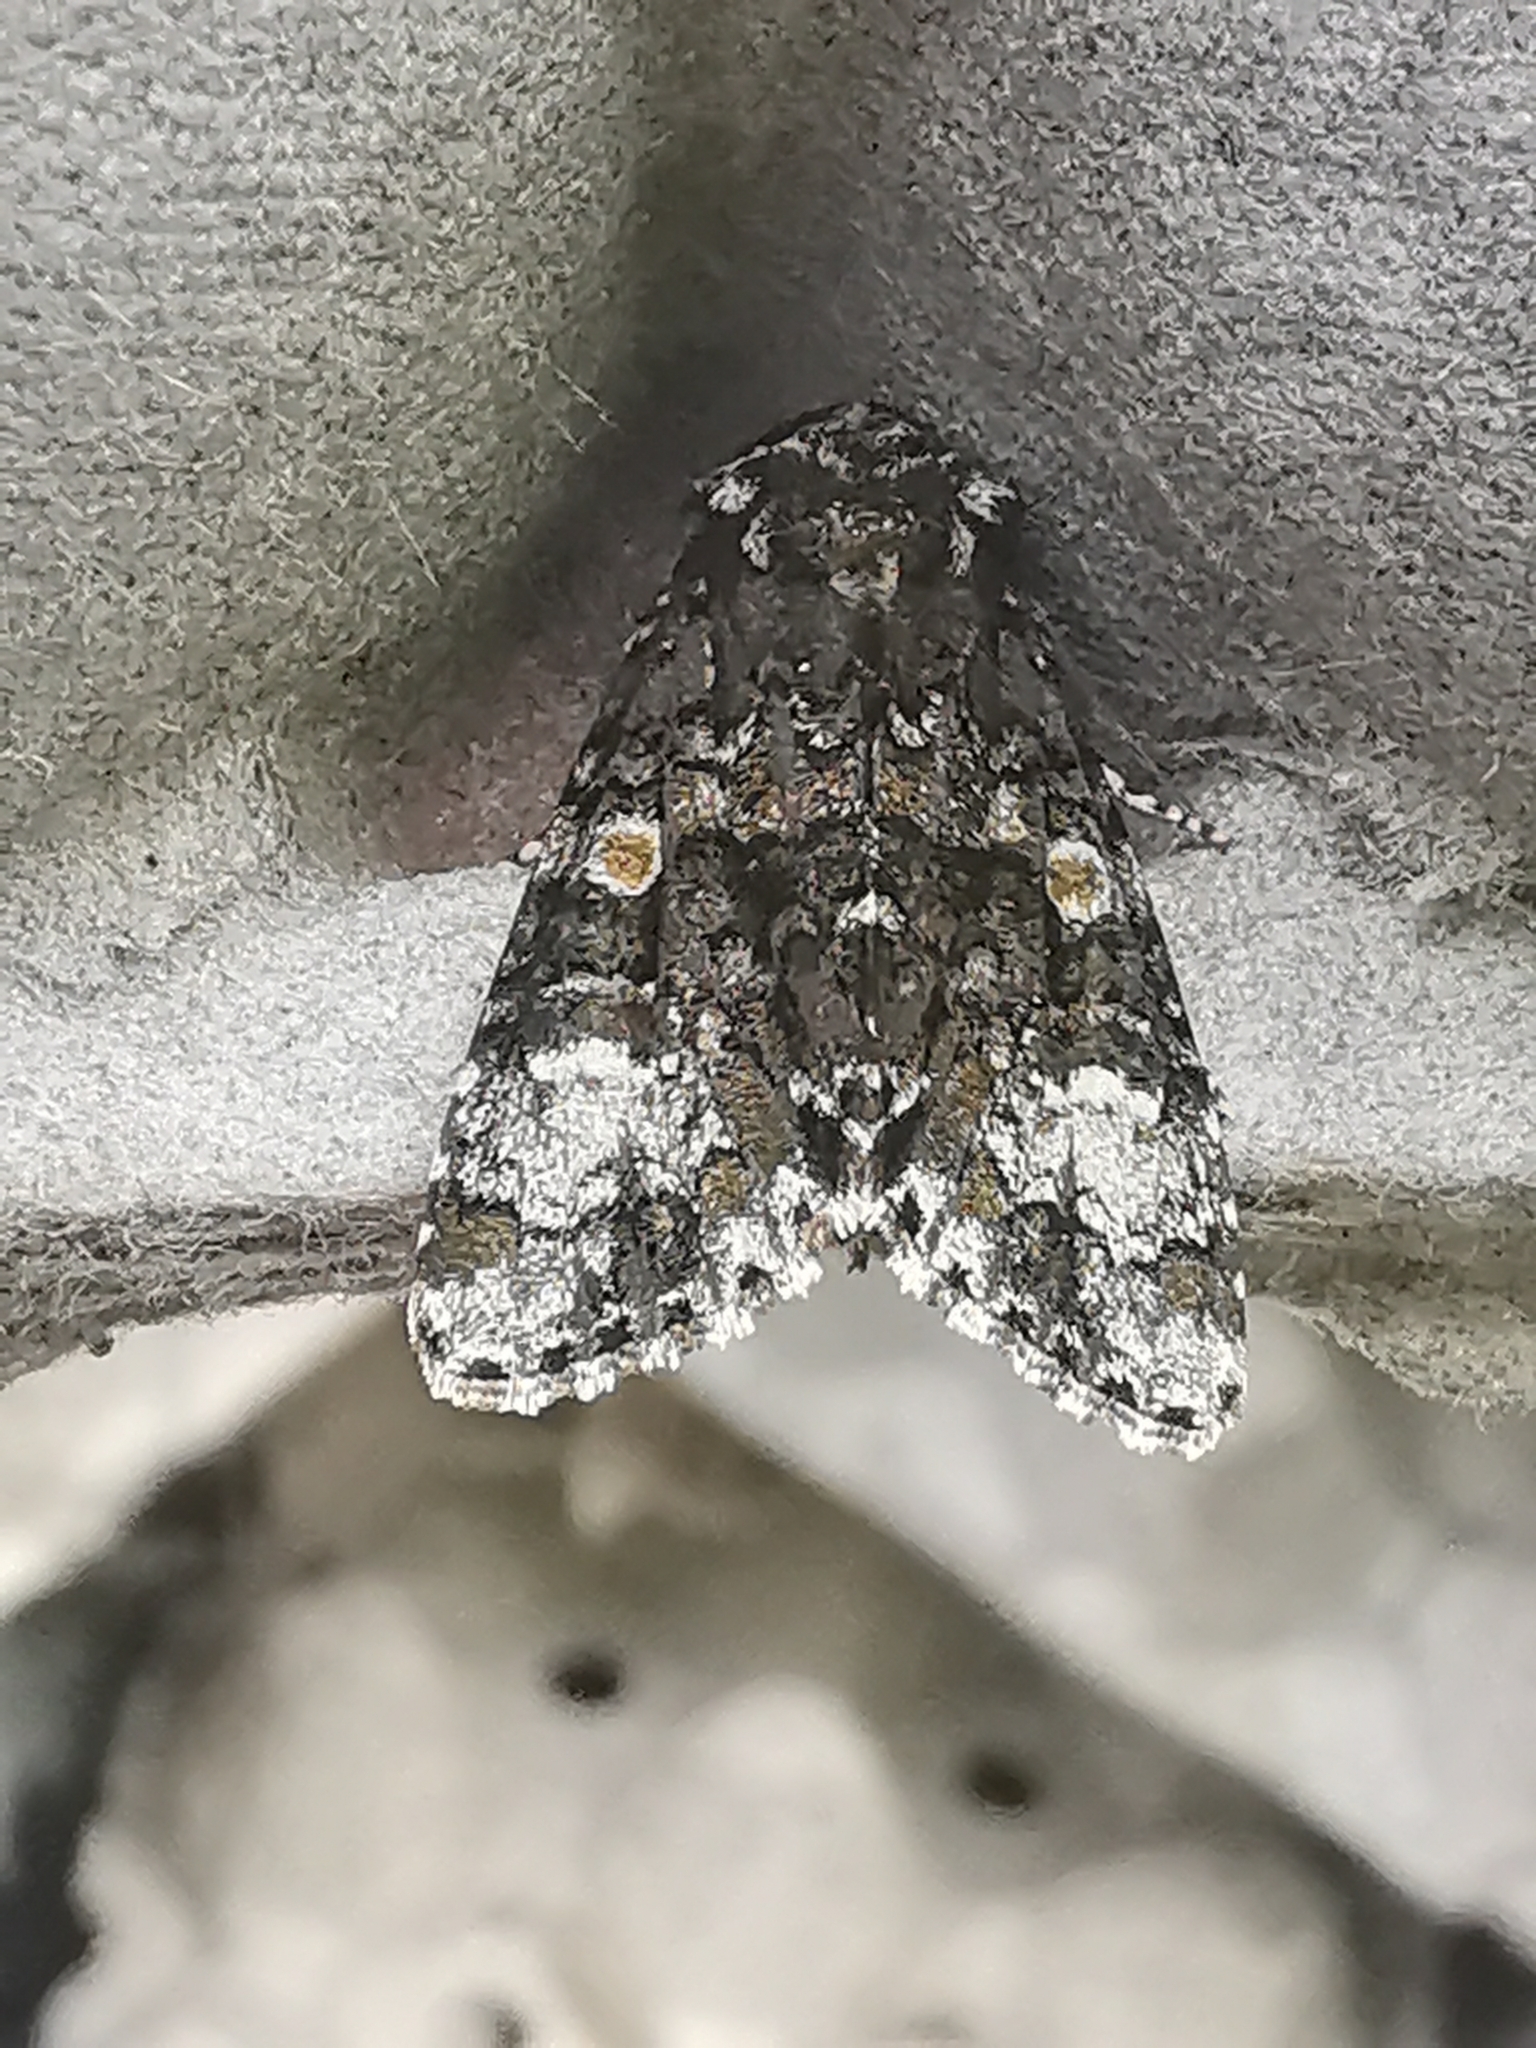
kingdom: Animalia
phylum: Arthropoda
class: Insecta
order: Lepidoptera
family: Noctuidae
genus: Craniophora
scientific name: Craniophora ligustri
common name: Coronet
